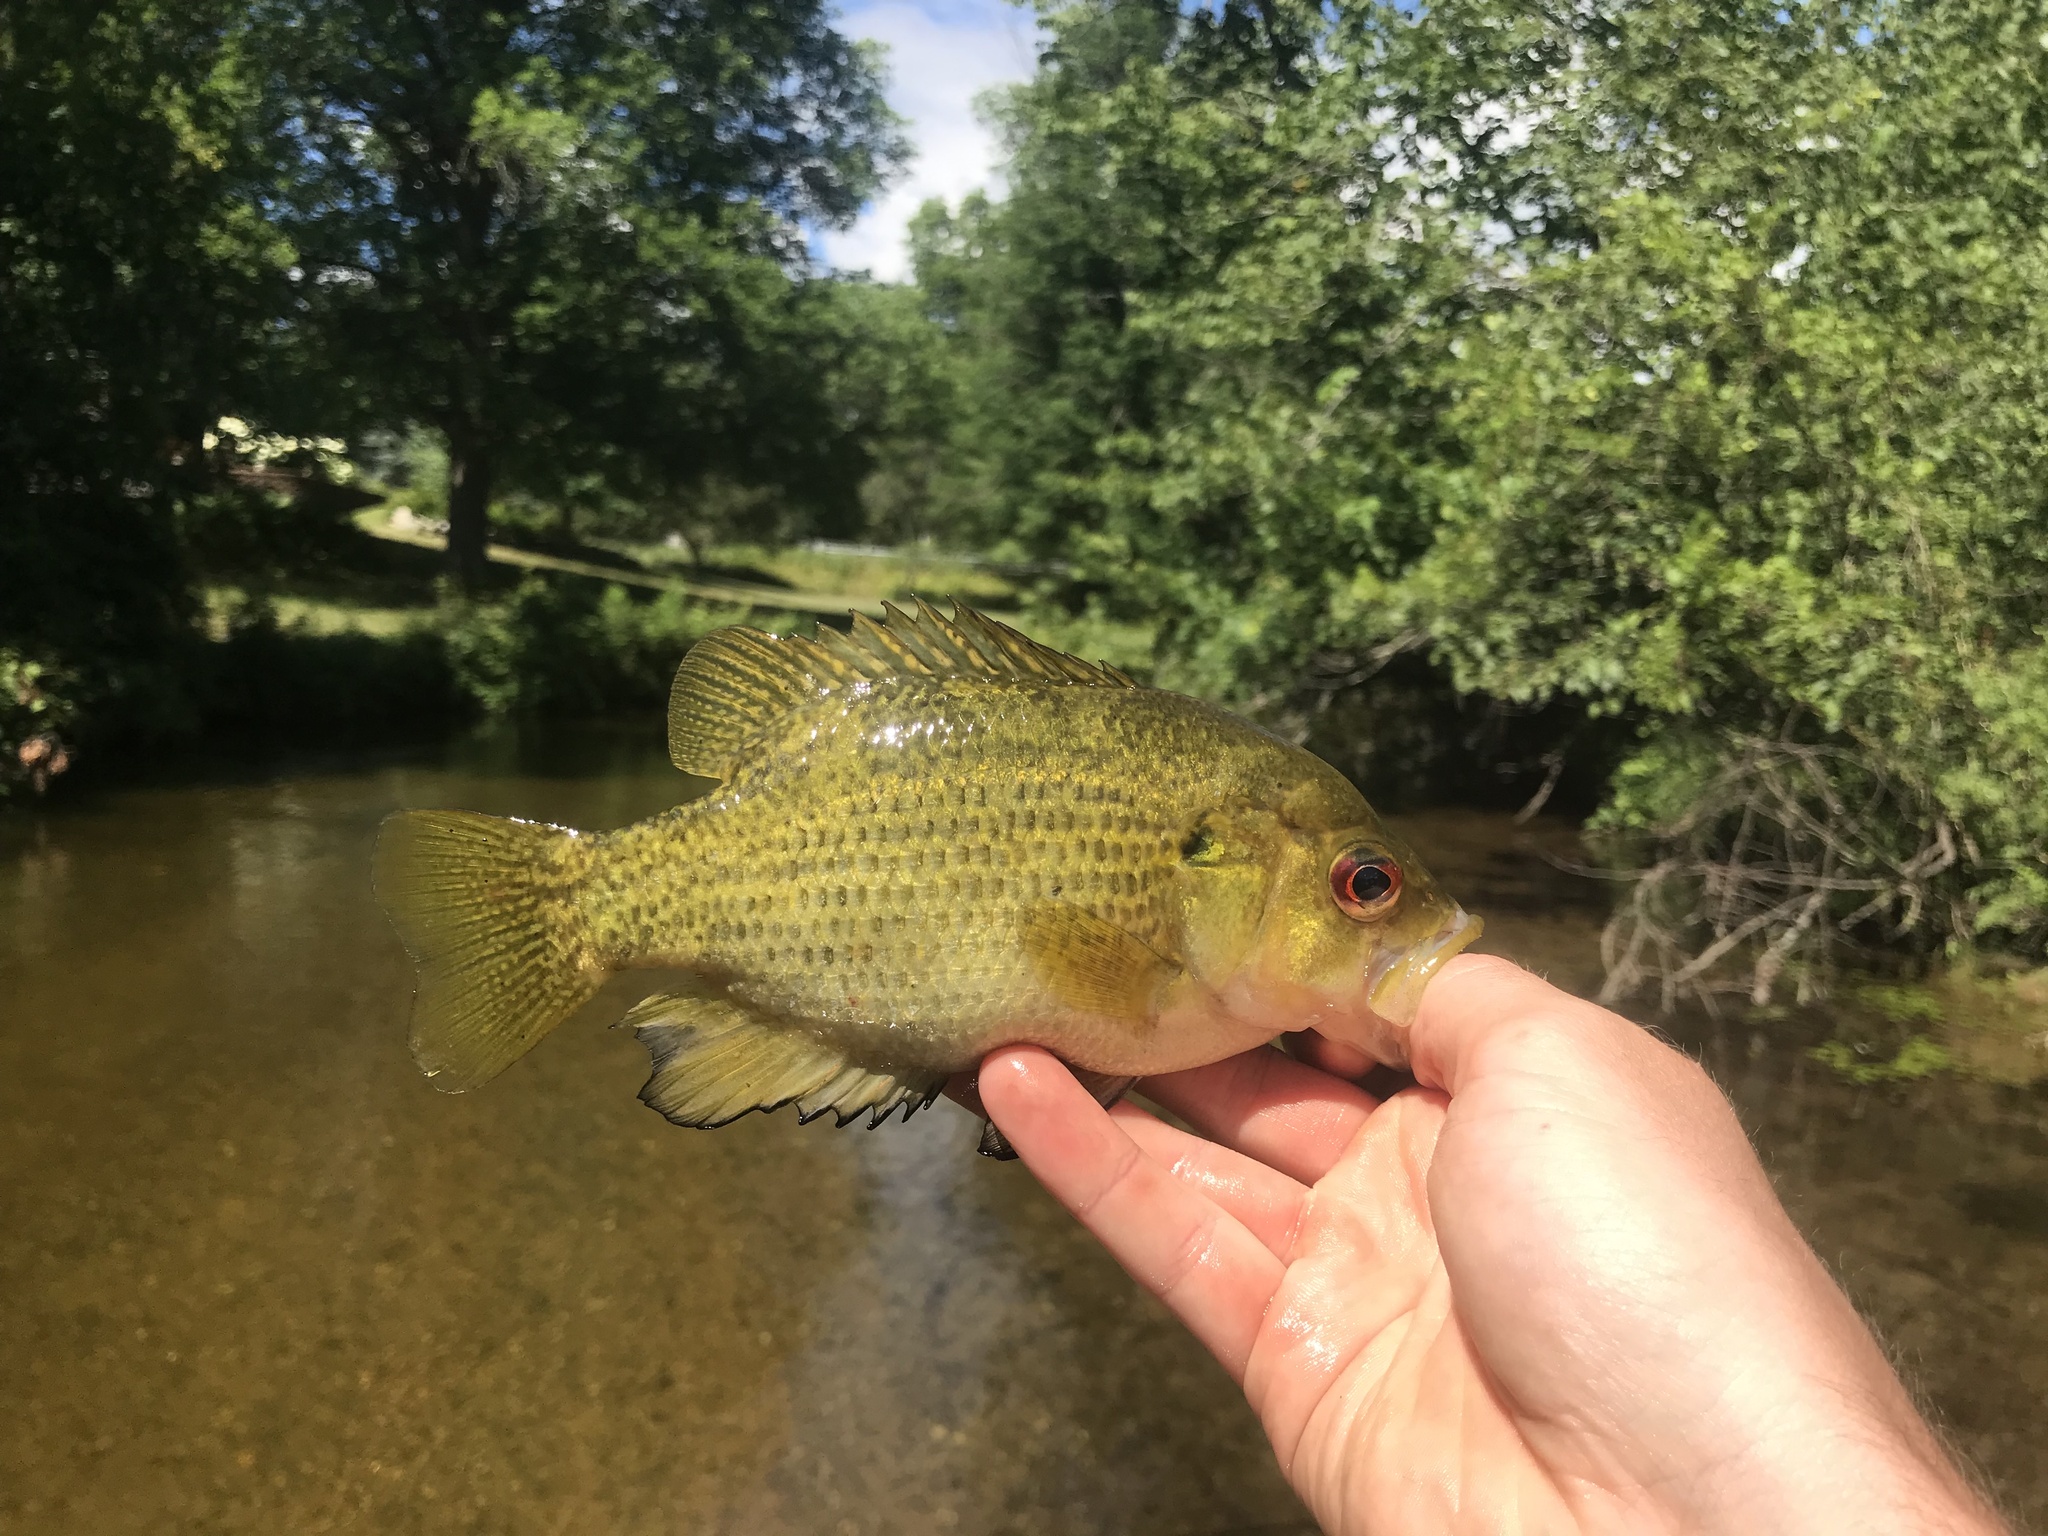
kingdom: Animalia
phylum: Chordata
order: Perciformes
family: Centrarchidae
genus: Ambloplites
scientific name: Ambloplites rupestris
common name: Rock bass
